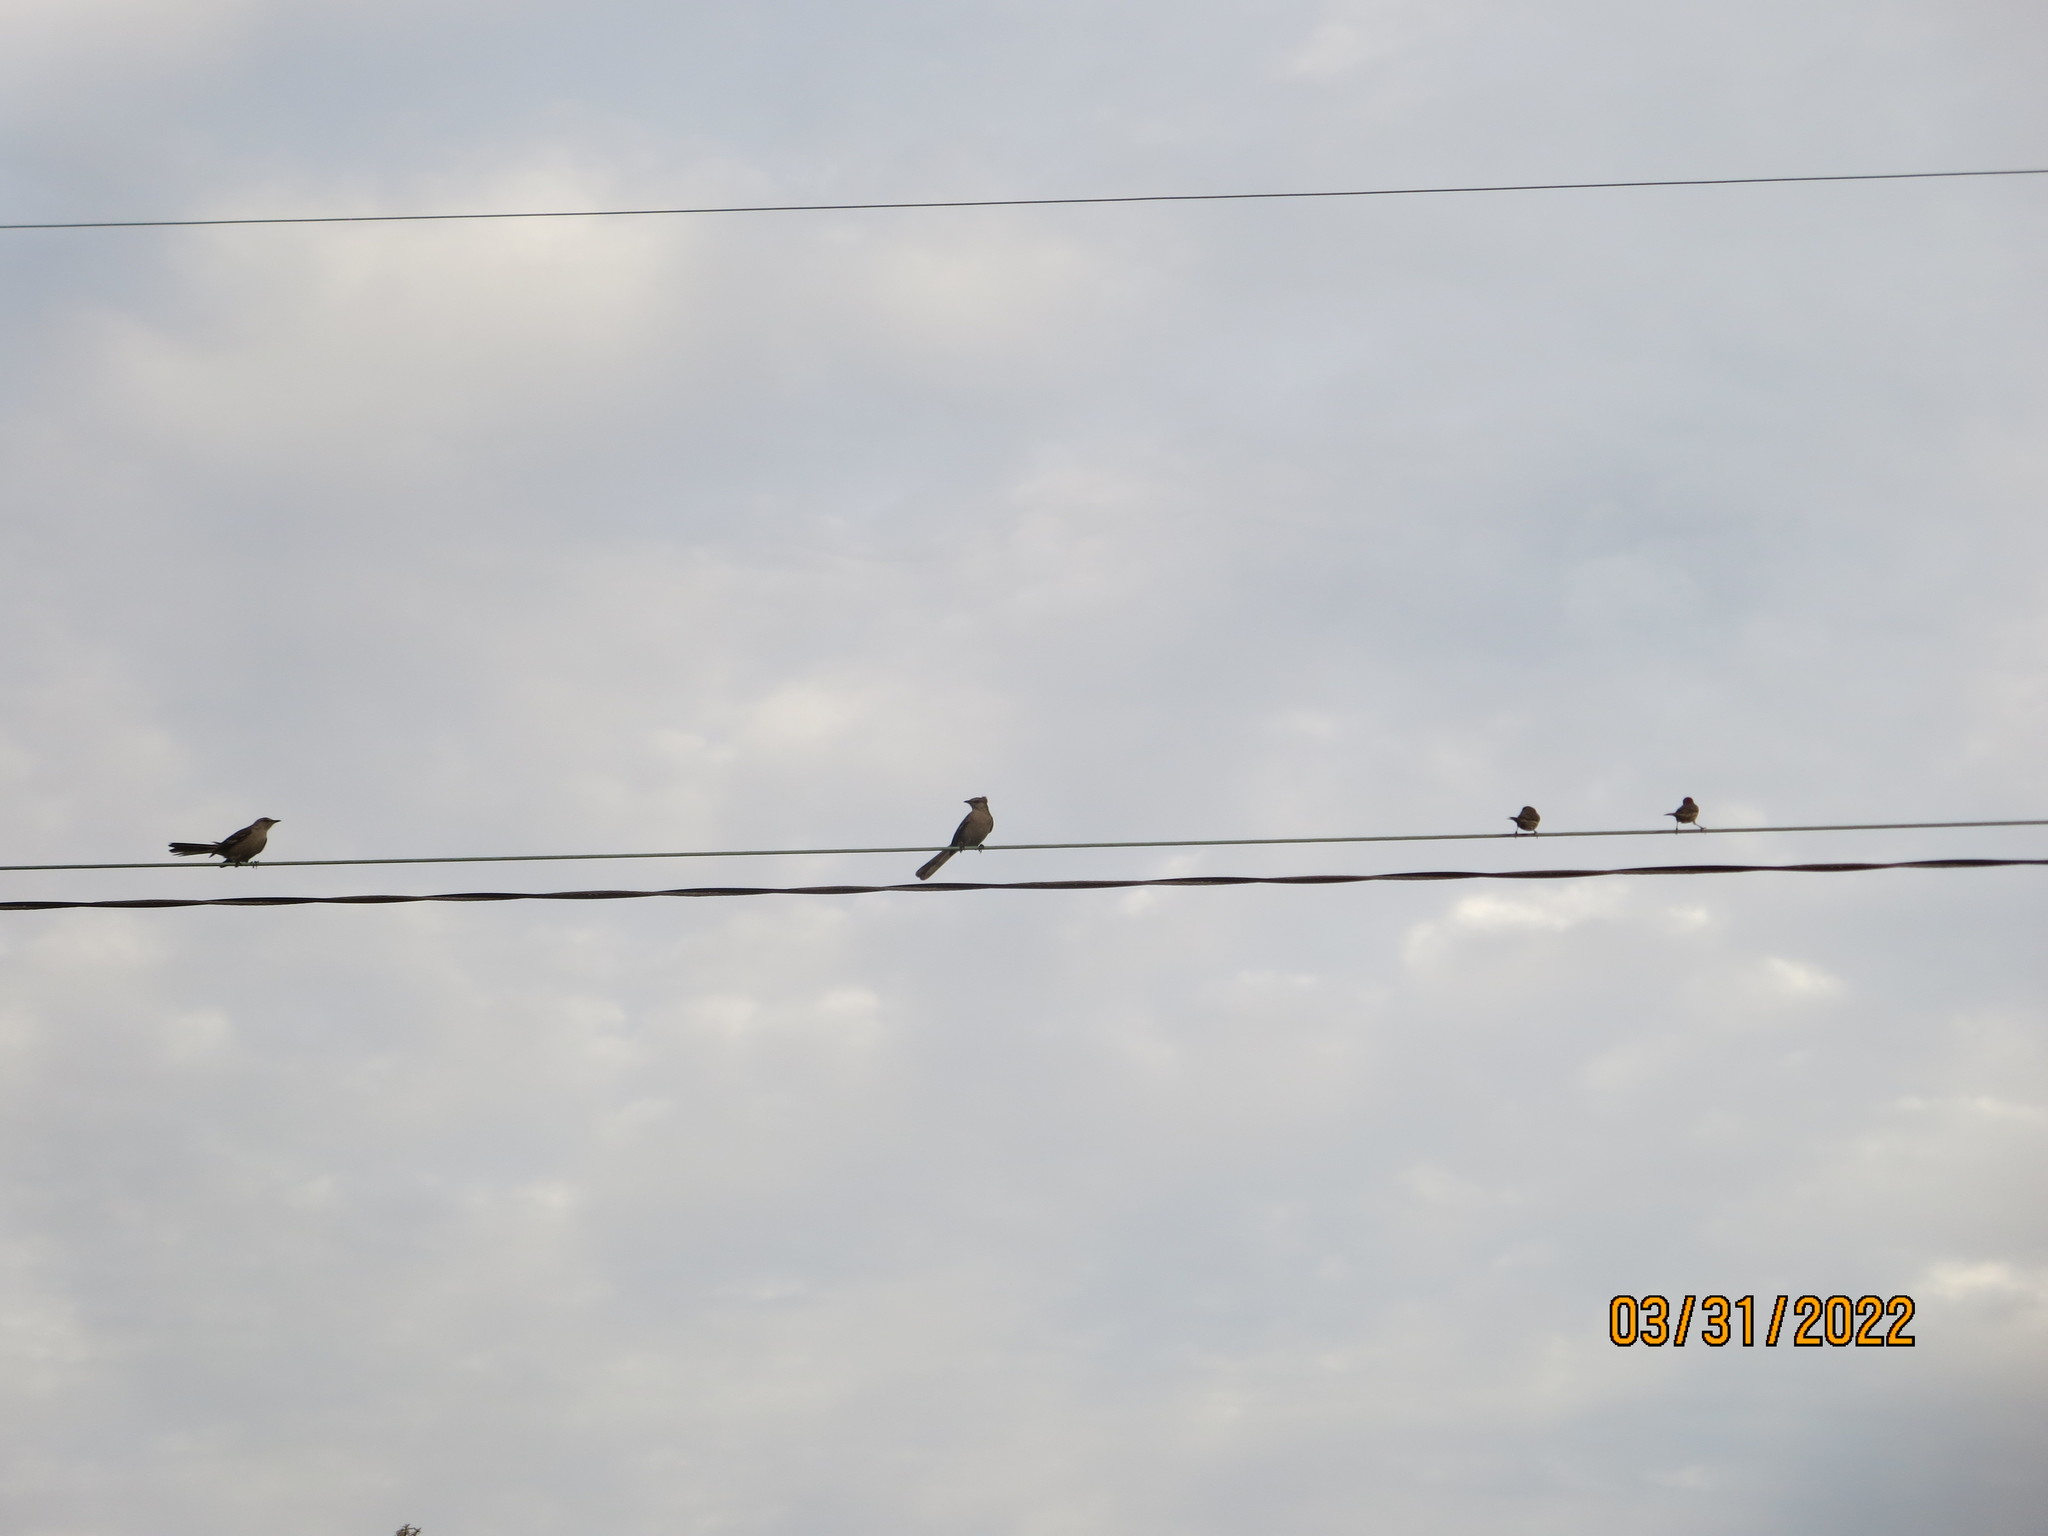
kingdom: Animalia
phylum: Chordata
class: Aves
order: Passeriformes
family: Fringillidae
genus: Haemorhous
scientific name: Haemorhous mexicanus
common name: House finch
